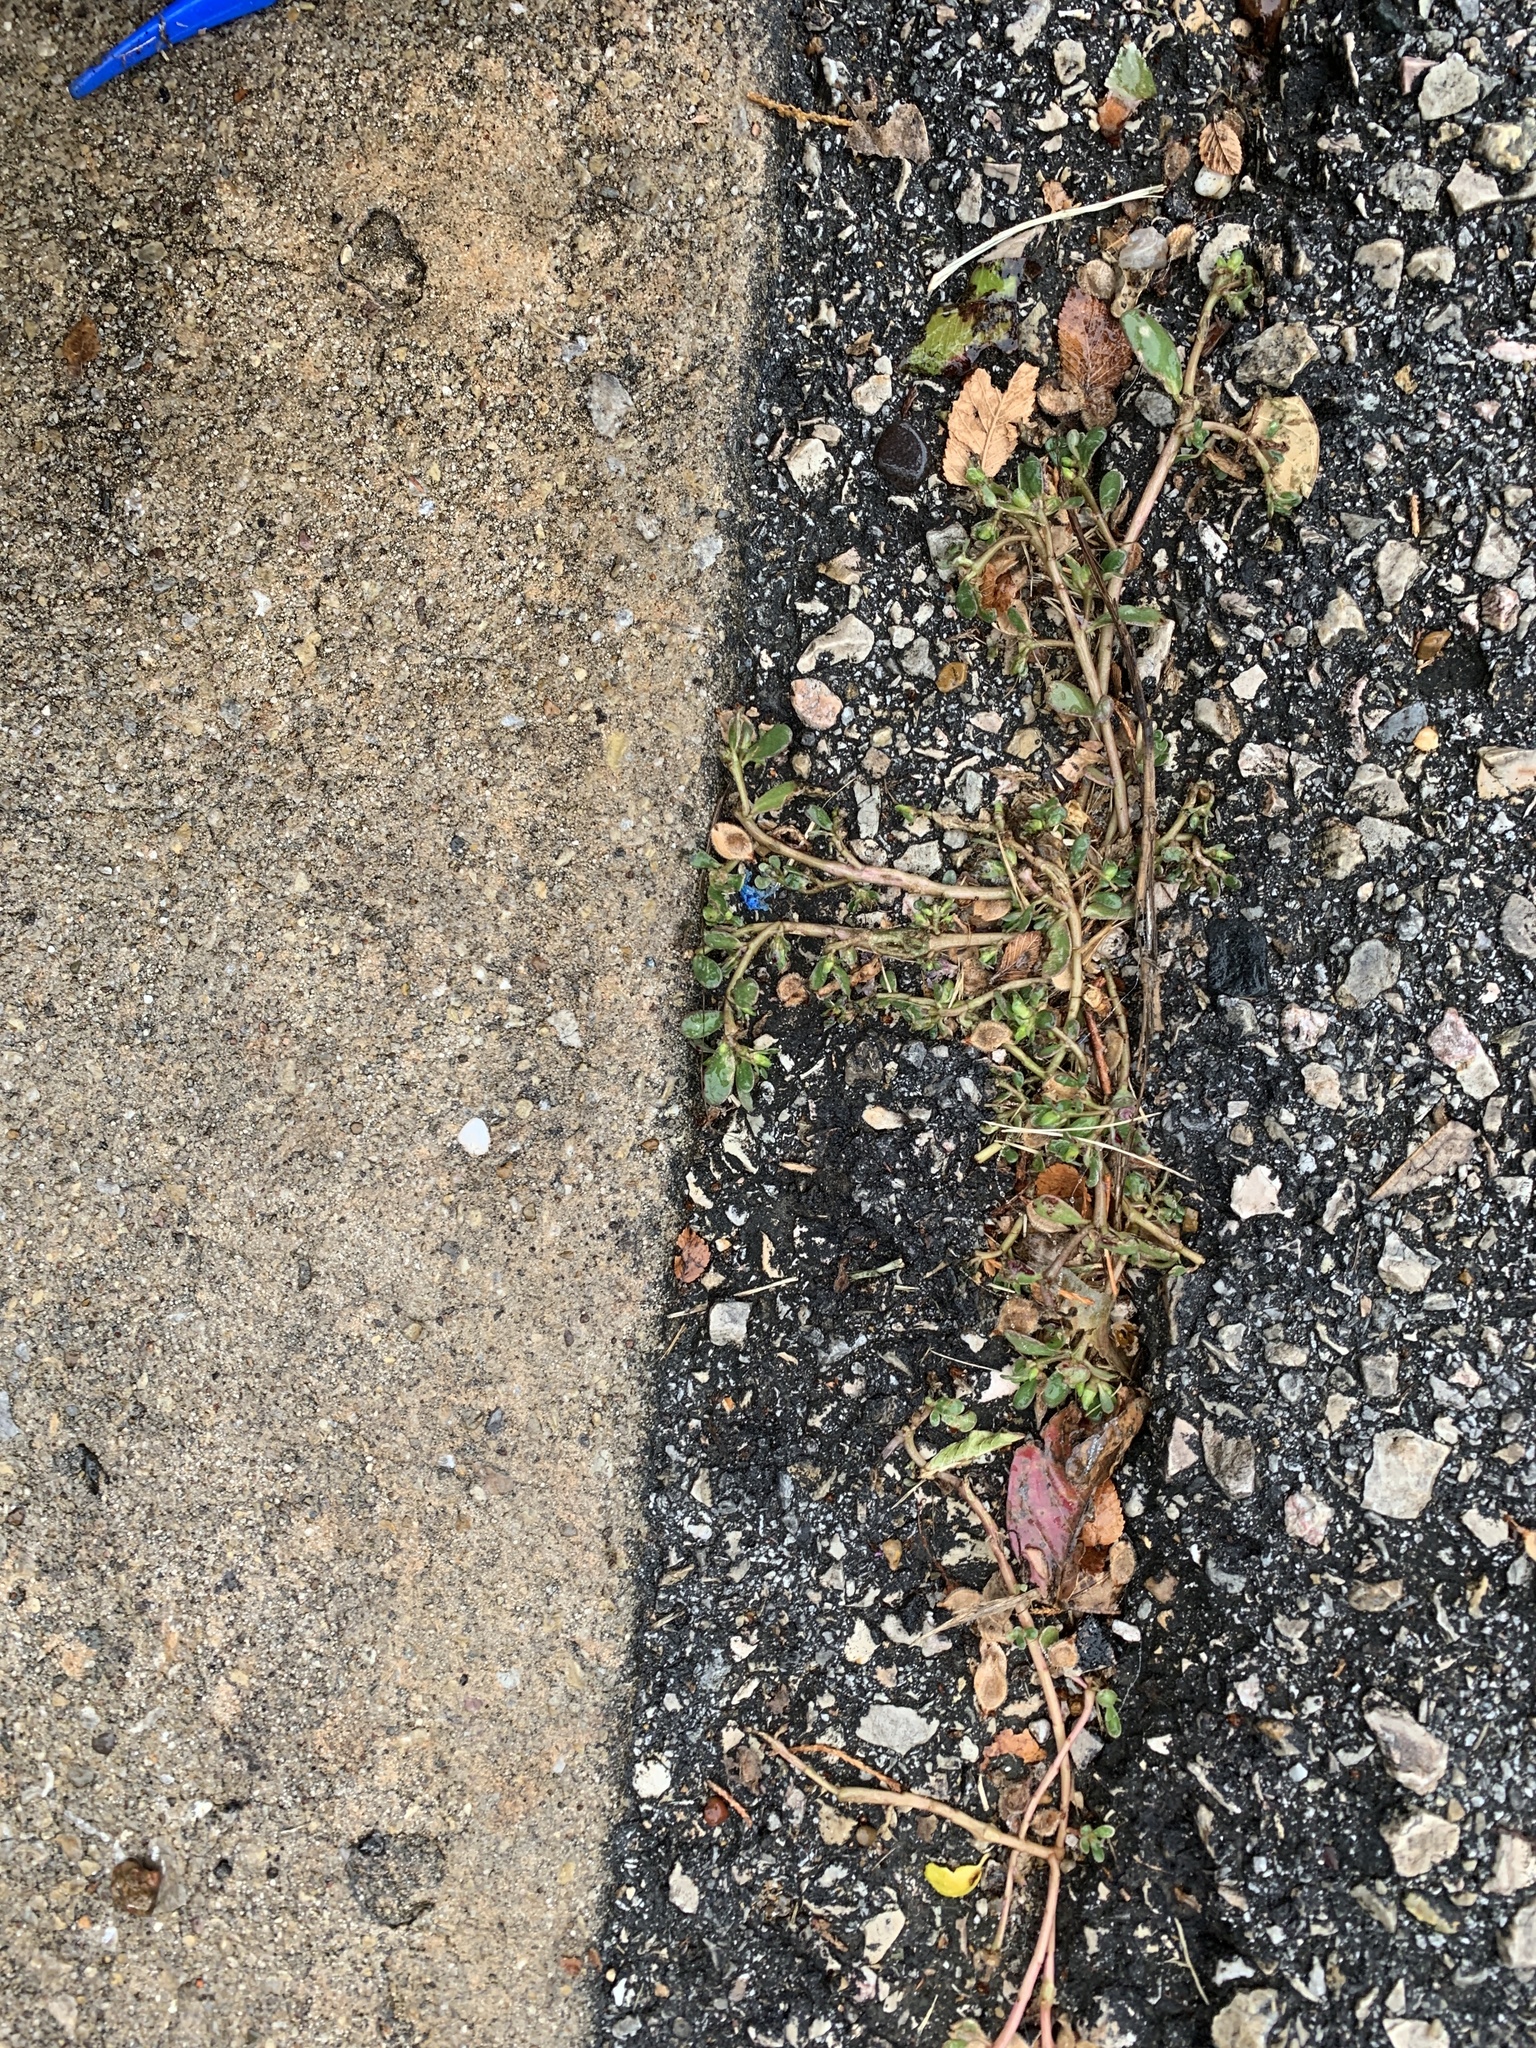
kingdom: Plantae
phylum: Tracheophyta
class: Magnoliopsida
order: Caryophyllales
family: Portulacaceae
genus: Portulaca
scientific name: Portulaca oleracea
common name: Common purslane
